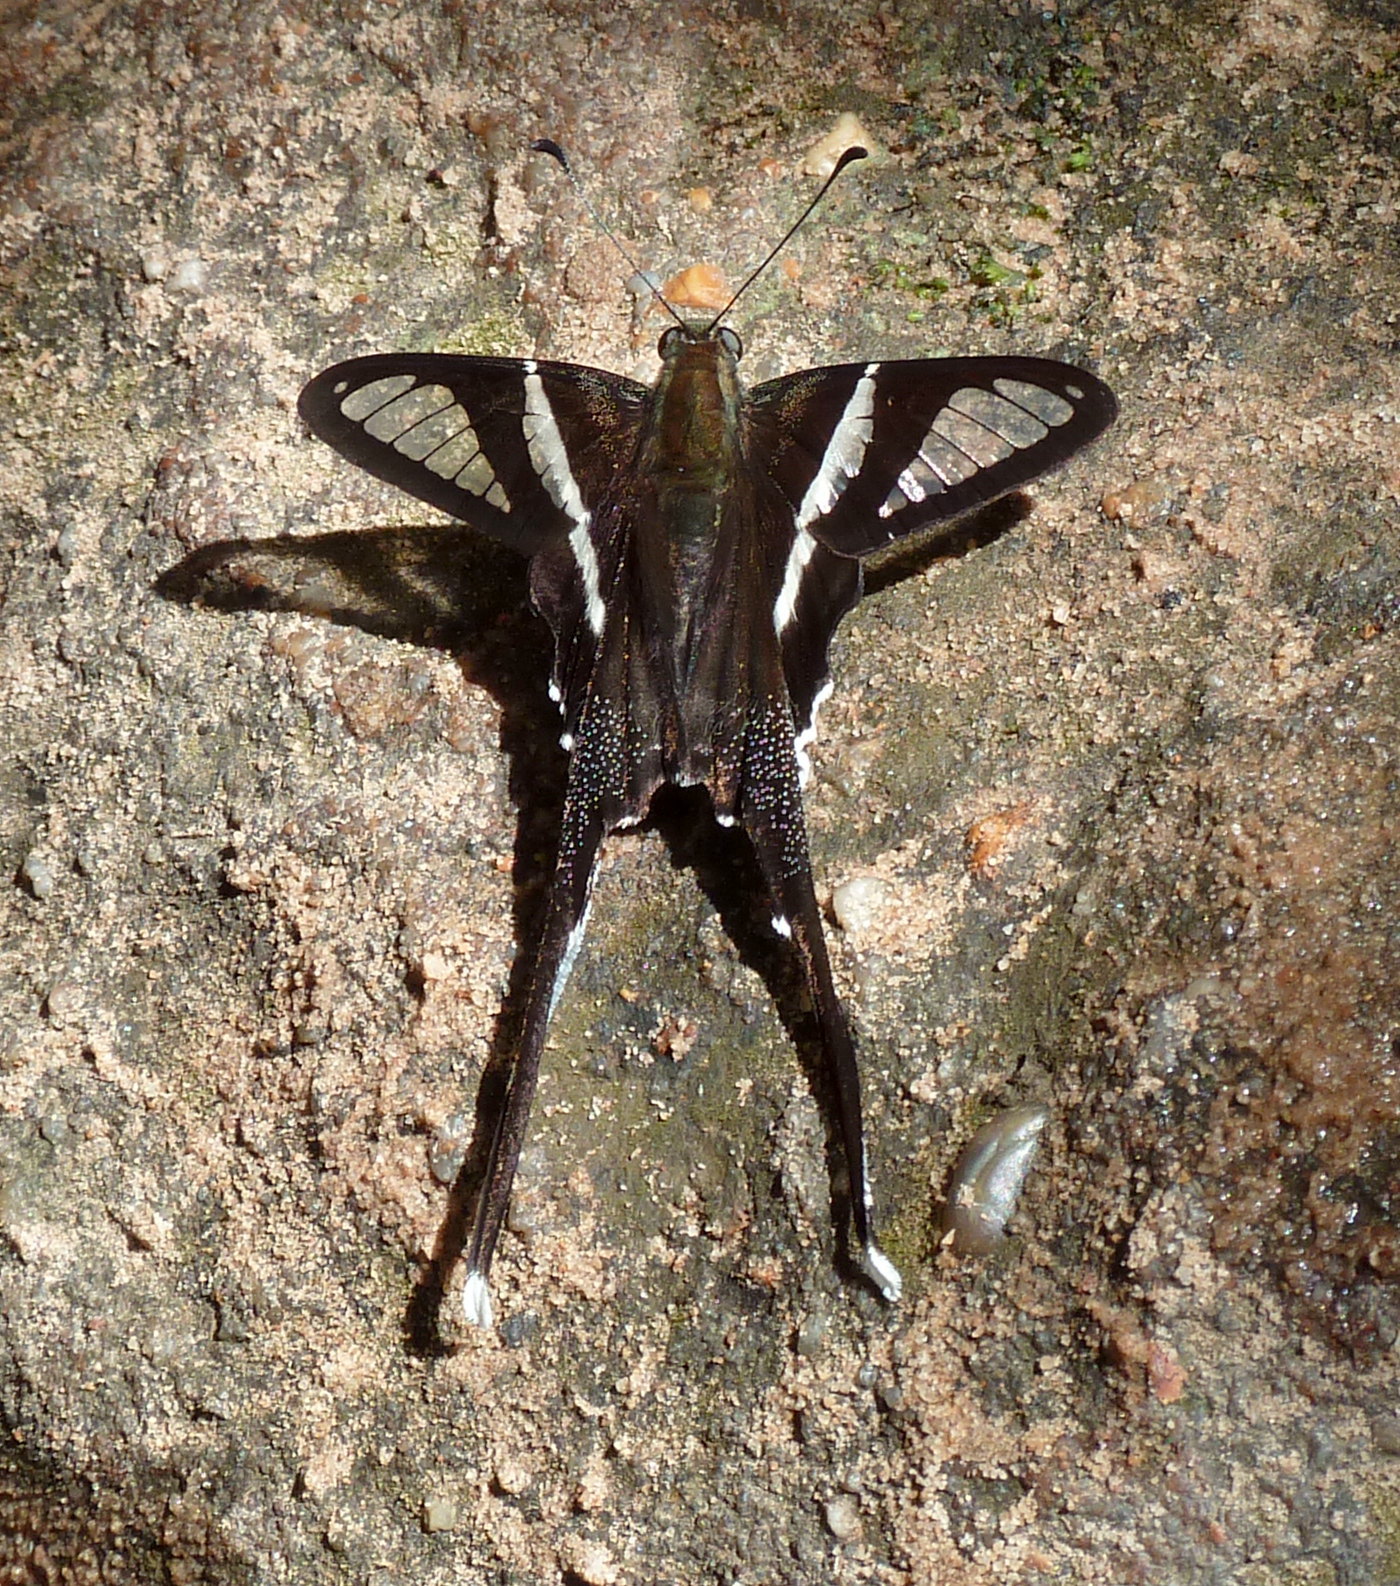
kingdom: Animalia
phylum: Arthropoda
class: Insecta
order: Lepidoptera
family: Papilionidae
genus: Lamproptera
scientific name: Lamproptera curius
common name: White dragontail
